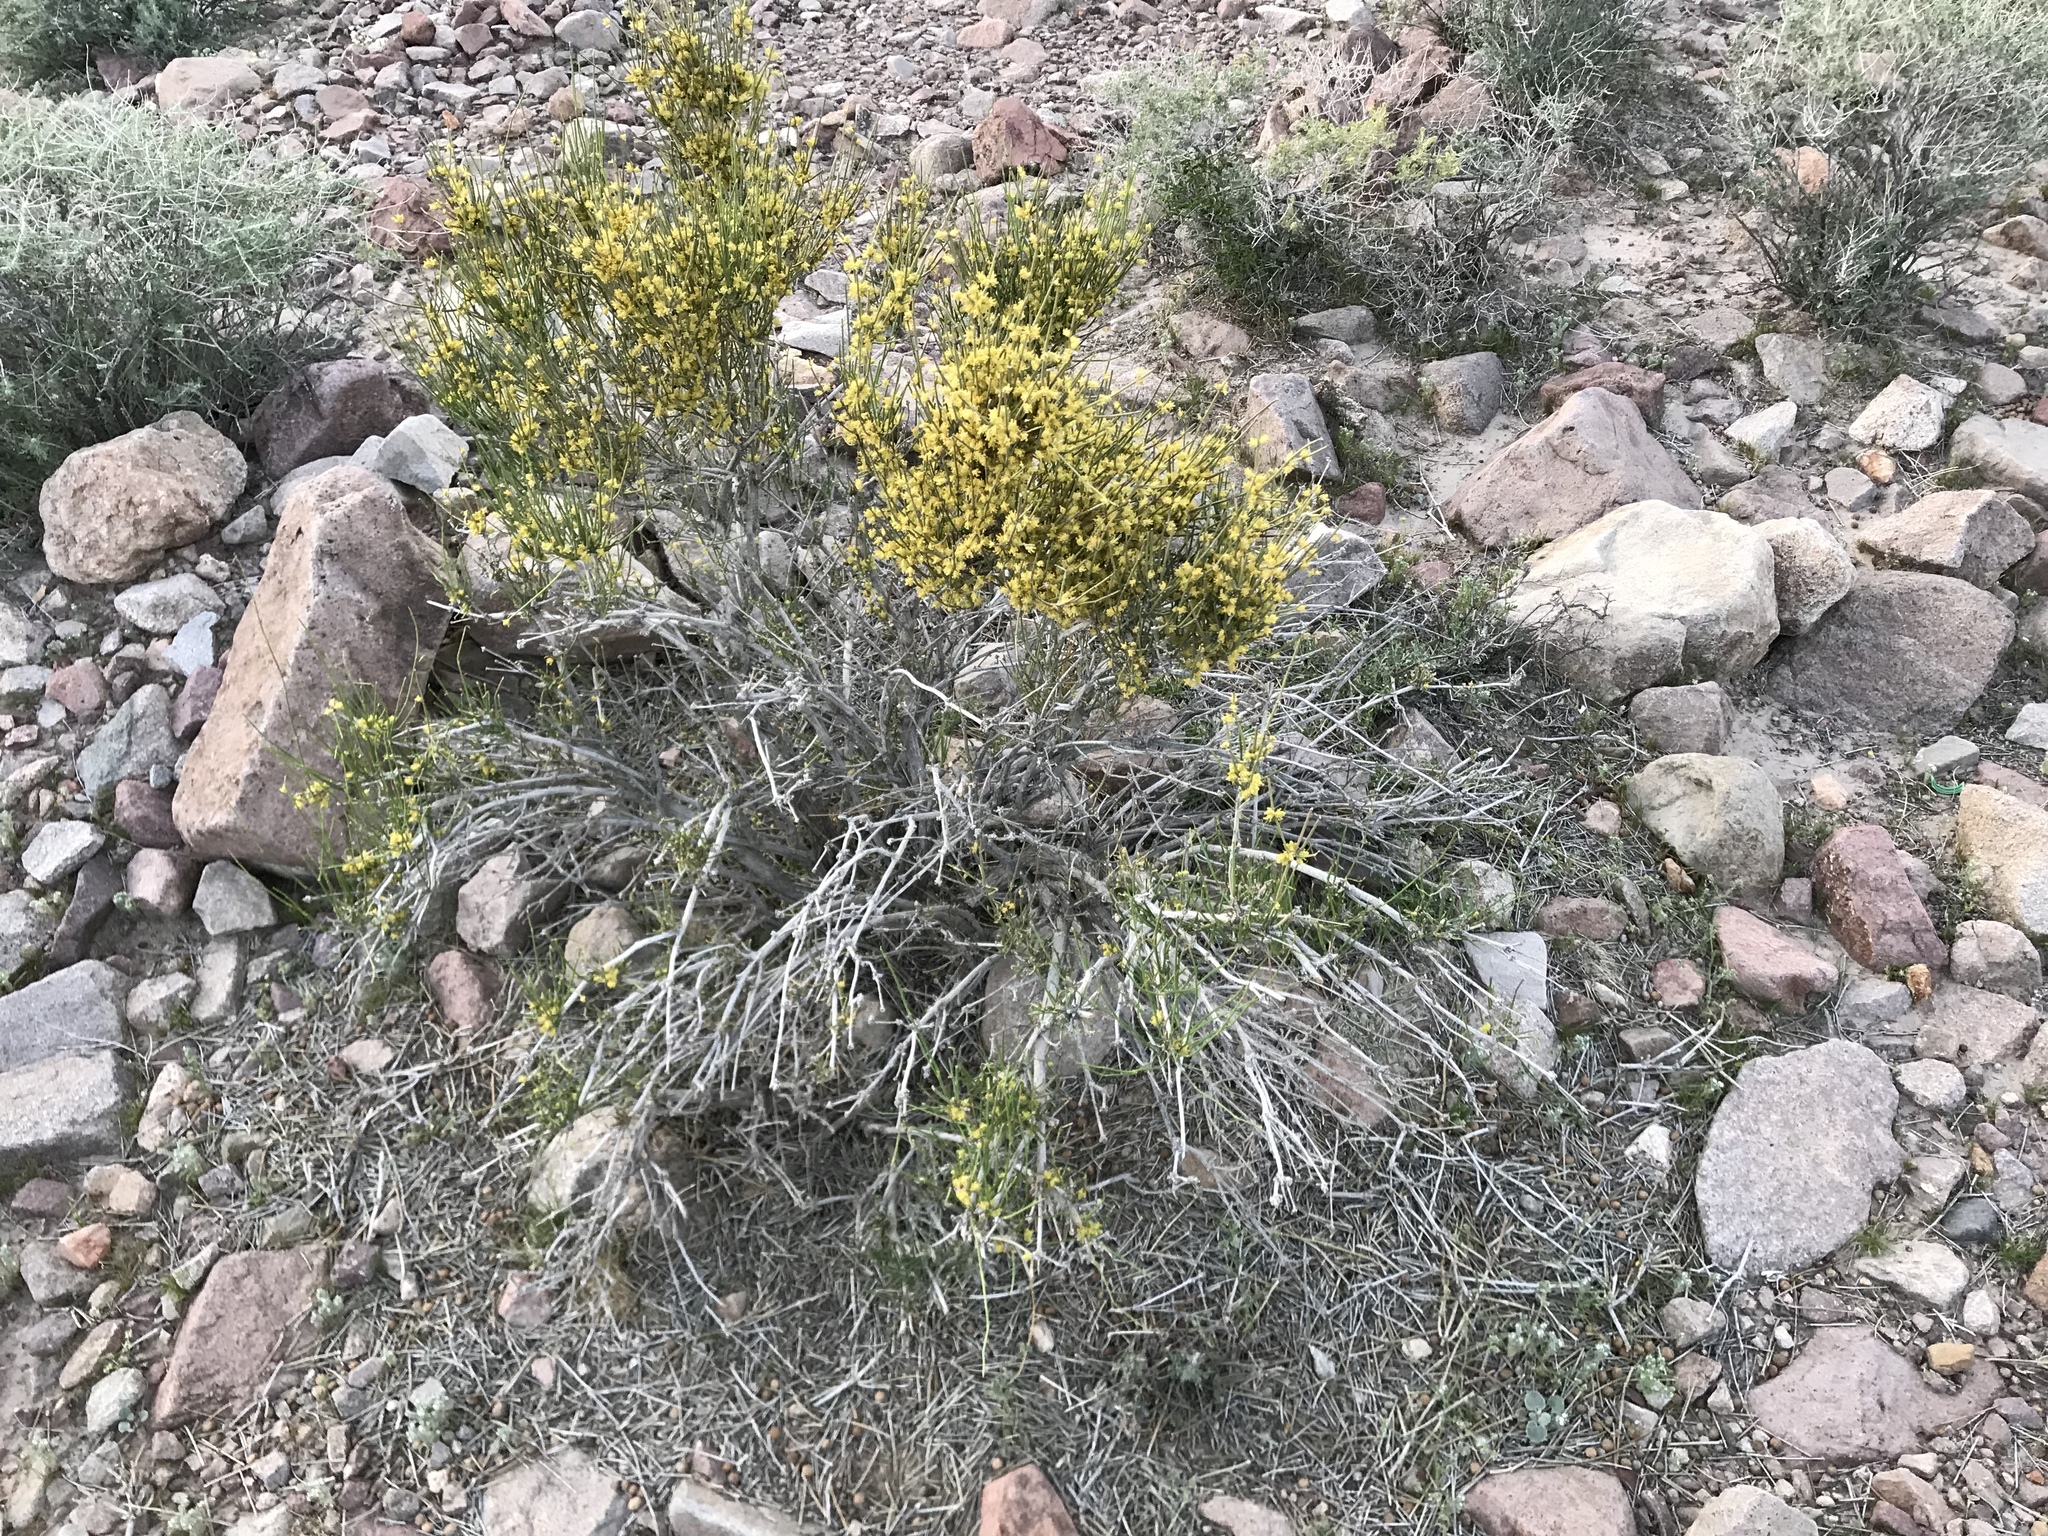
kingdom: Plantae
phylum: Tracheophyta
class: Gnetopsida
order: Ephedrales
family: Ephedraceae
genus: Ephedra
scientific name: Ephedra viridis
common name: Green ephedra
